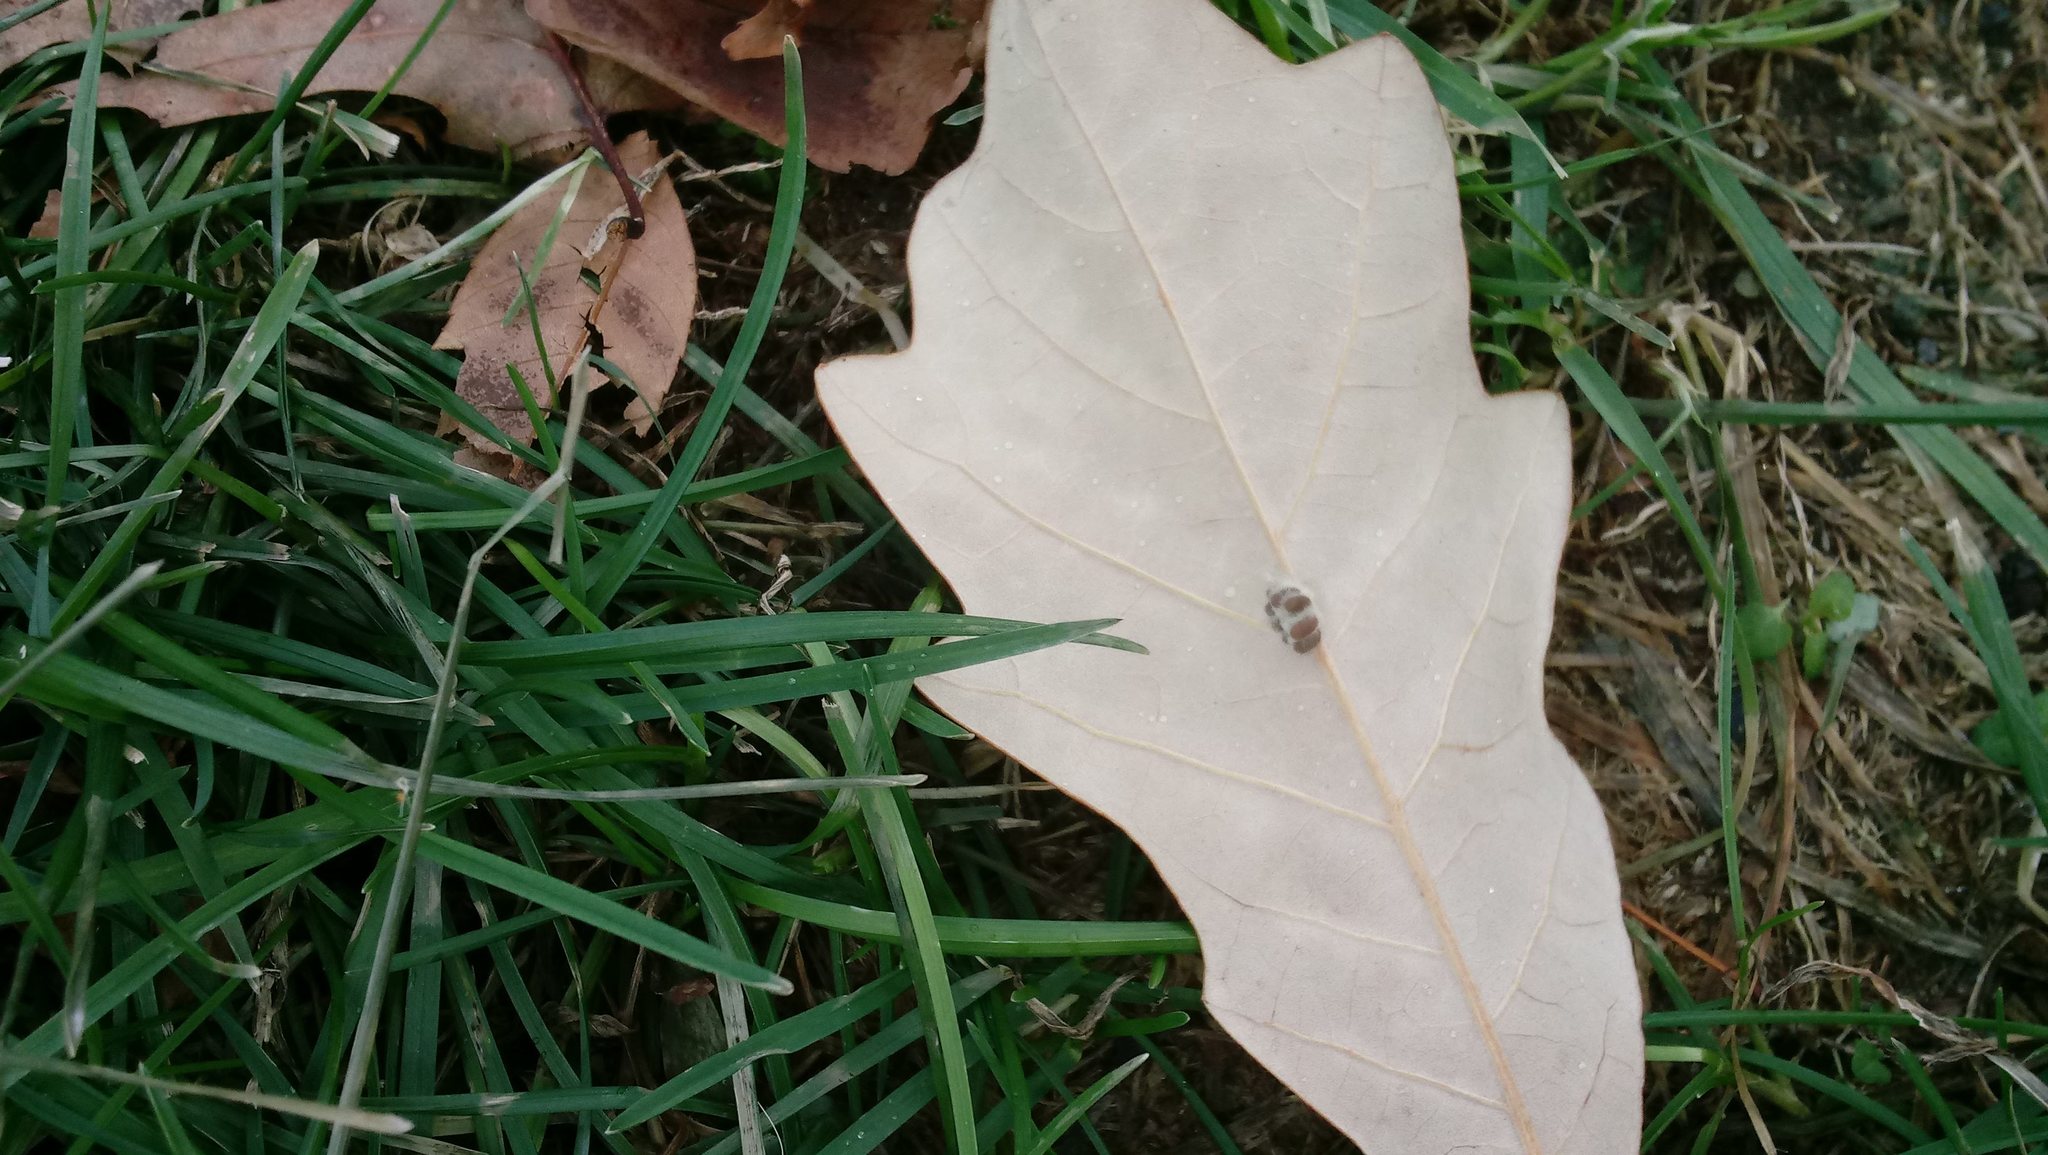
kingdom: Animalia
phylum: Arthropoda
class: Insecta
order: Hymenoptera
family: Cynipidae
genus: Andricus
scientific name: Andricus Druon ignotum
